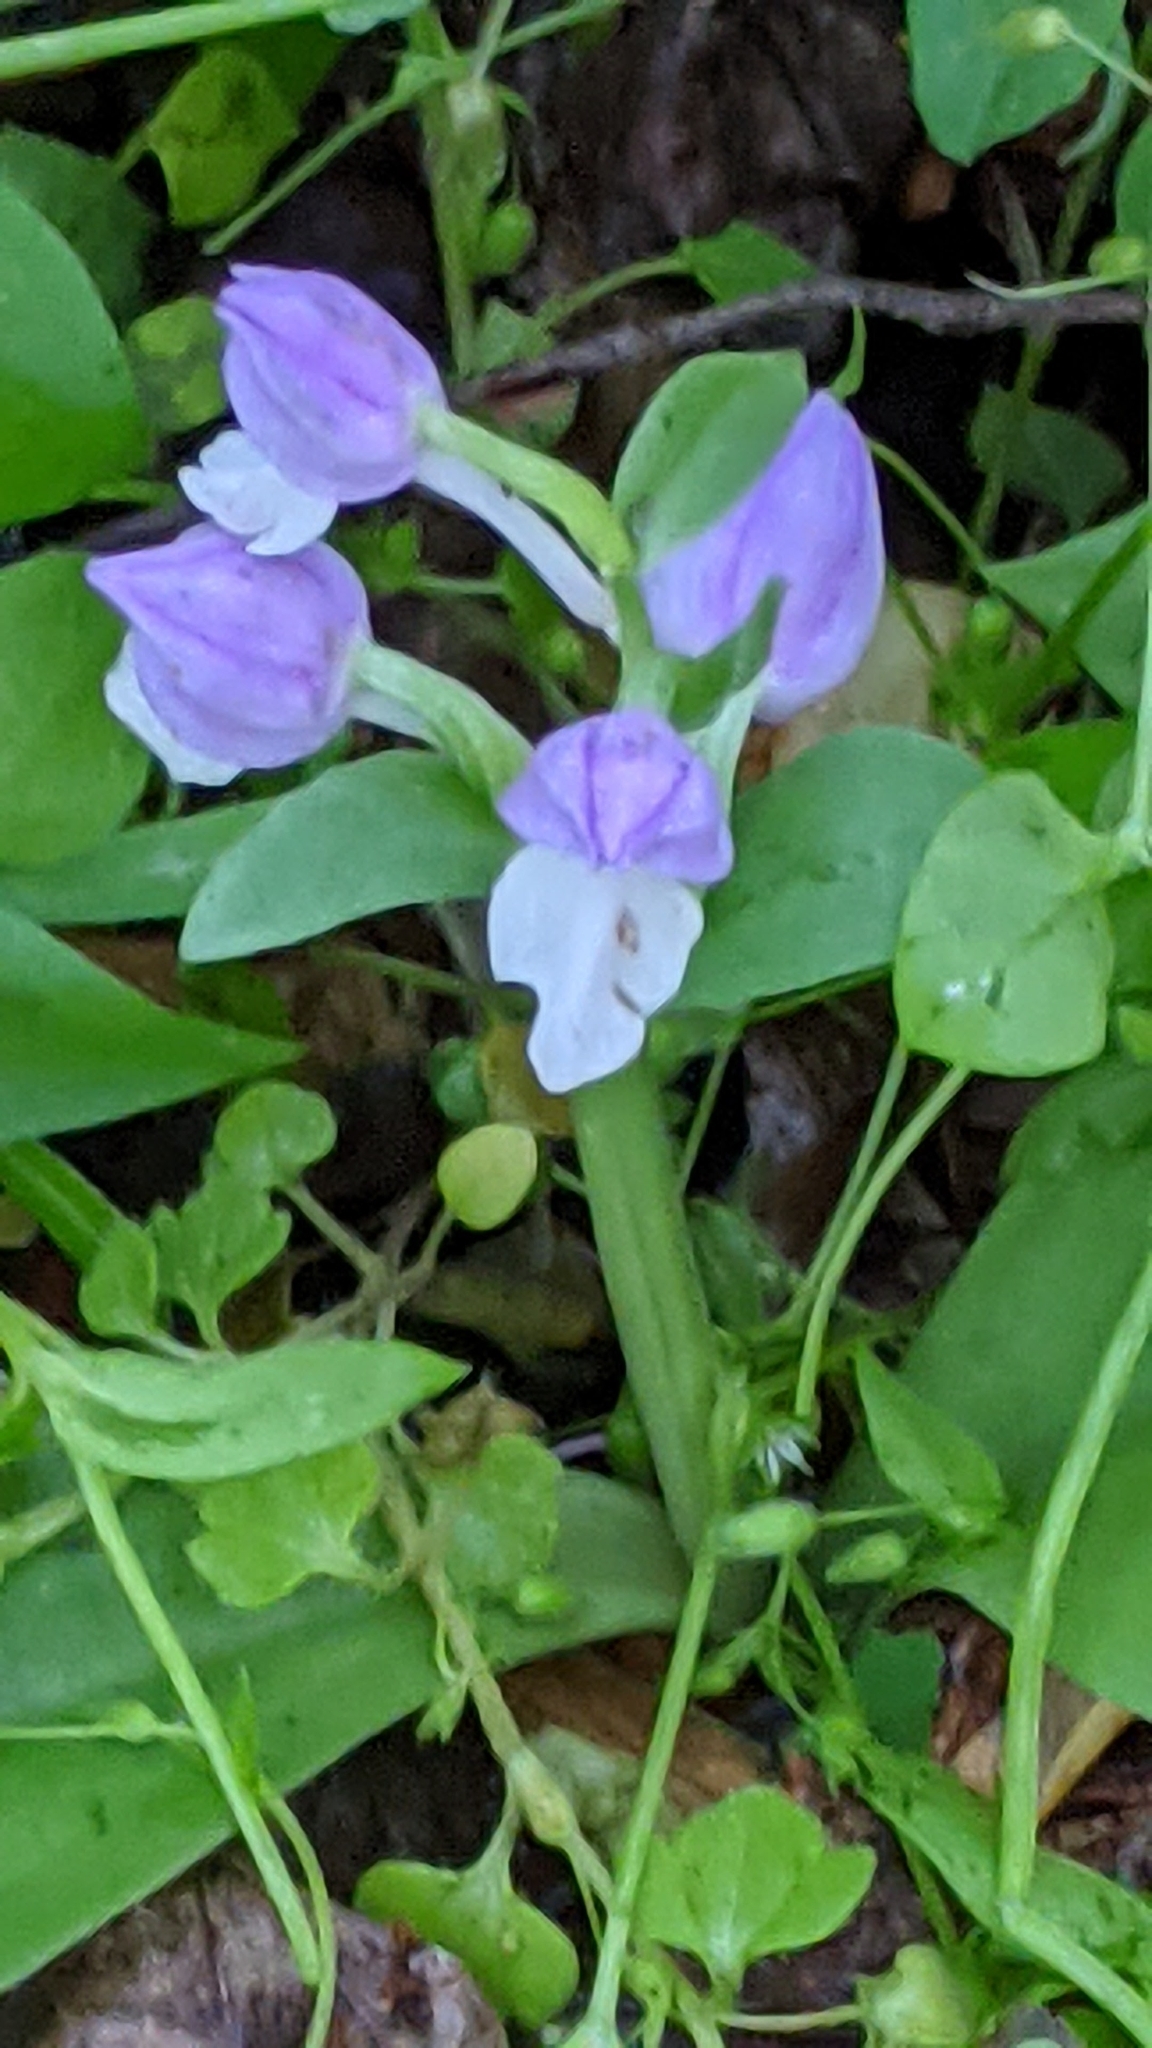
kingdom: Plantae
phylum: Tracheophyta
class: Liliopsida
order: Asparagales
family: Orchidaceae
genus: Galearis
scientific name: Galearis spectabilis
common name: Purple-hooded orchis
